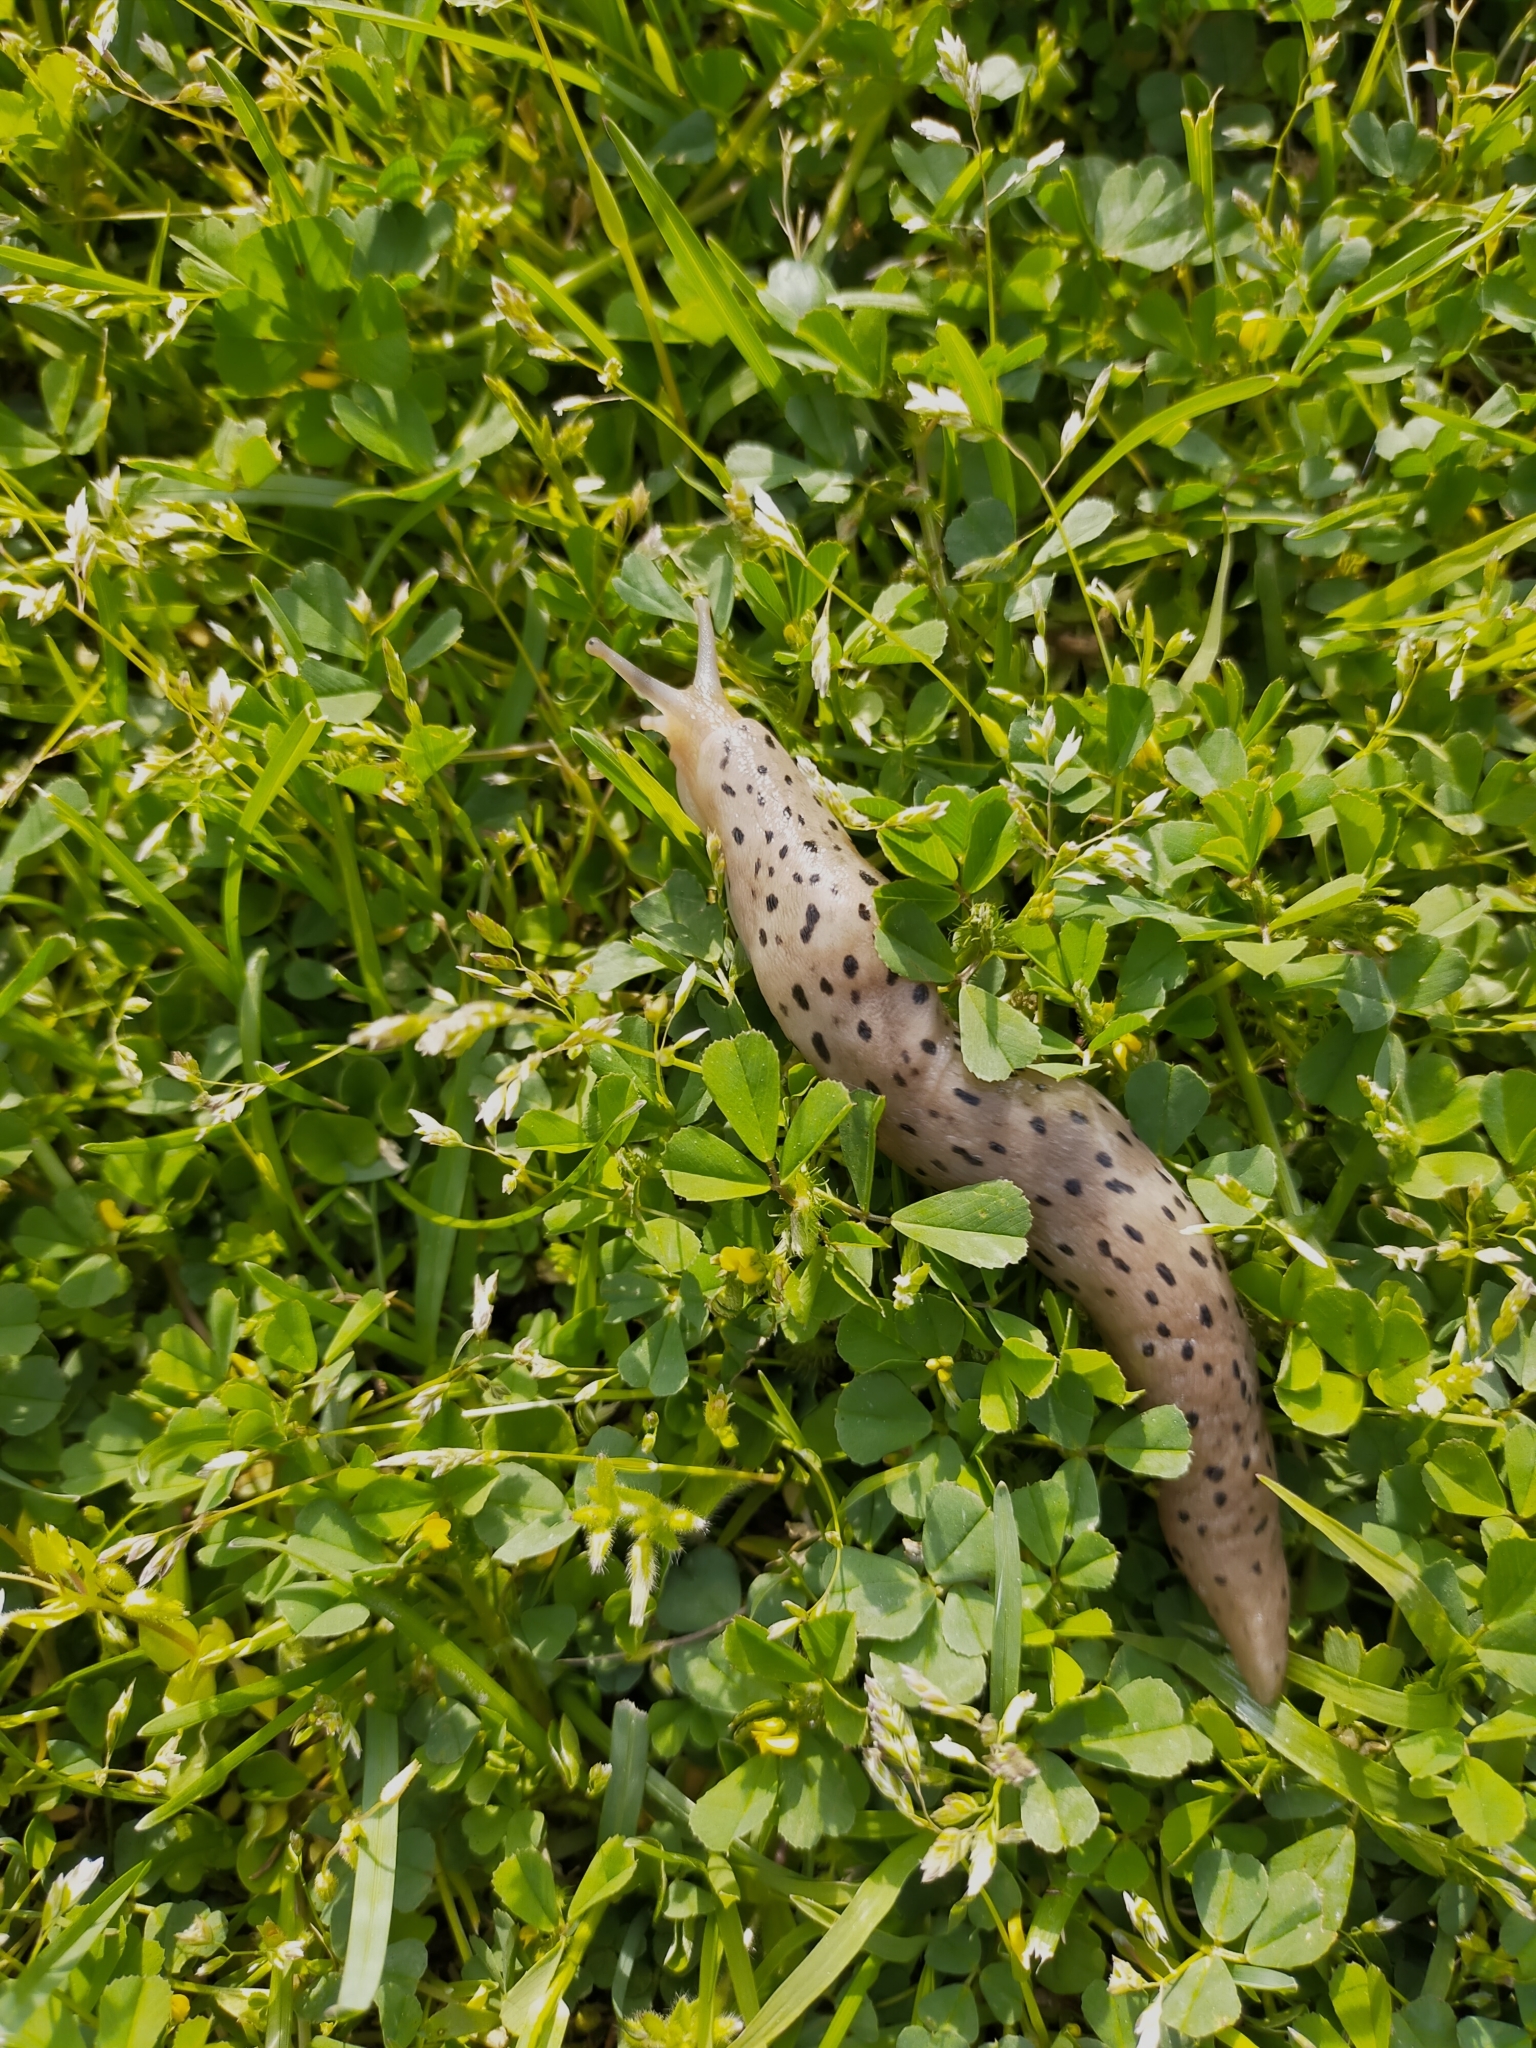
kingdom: Animalia
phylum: Mollusca
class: Gastropoda
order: Stylommatophora
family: Limacidae
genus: Limax
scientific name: Limax conemenosi
